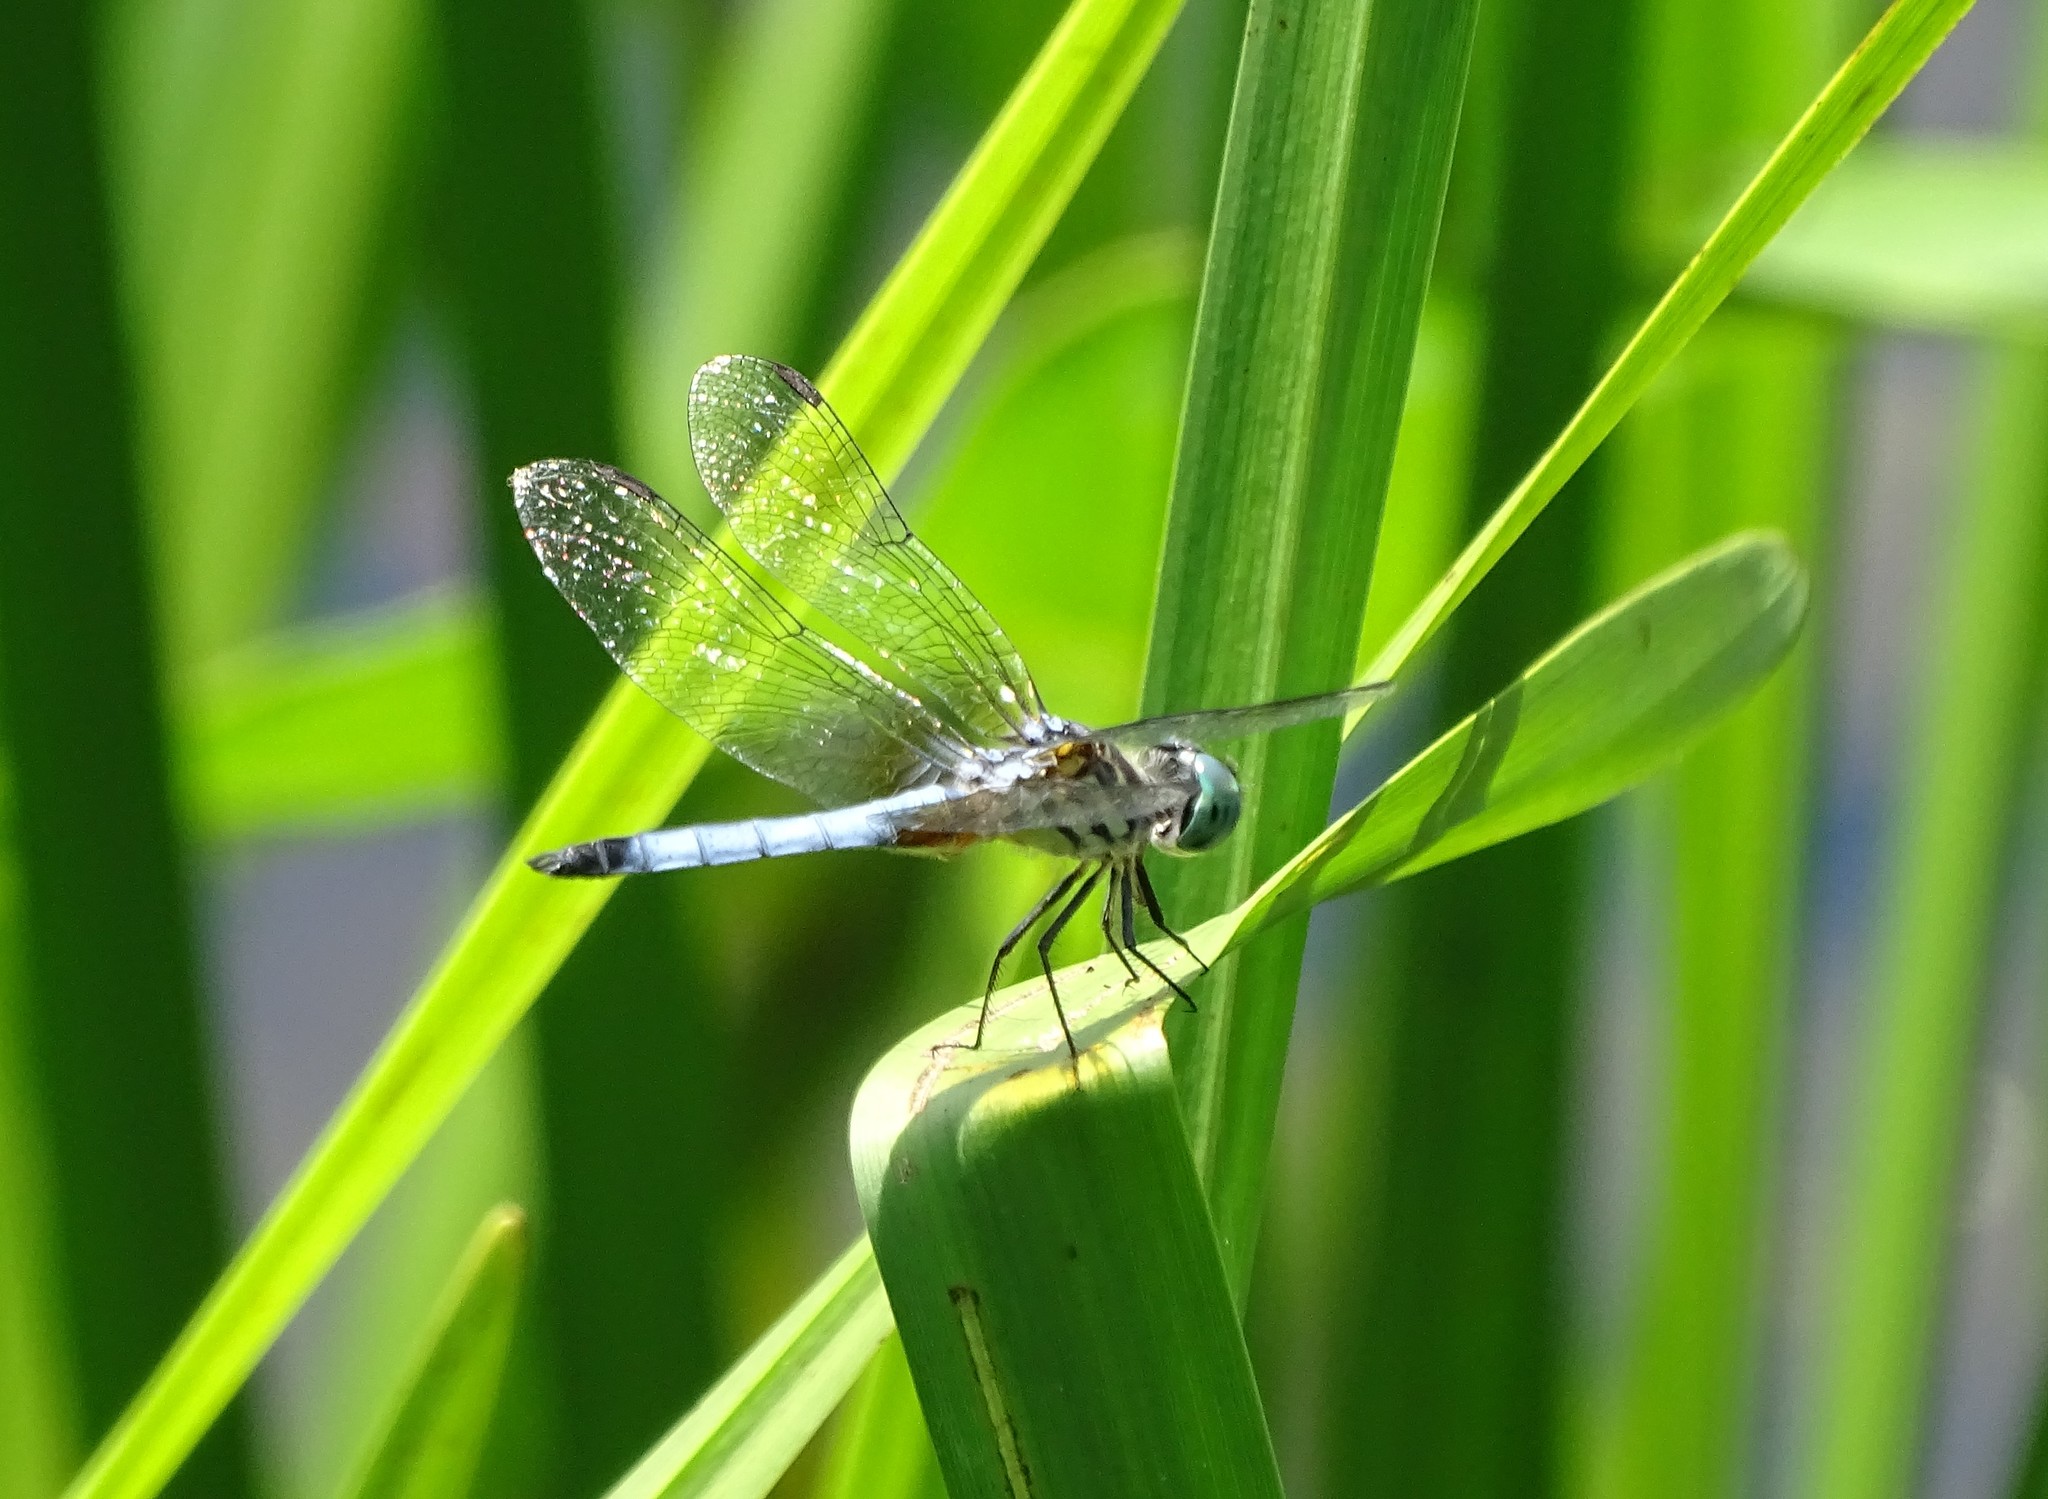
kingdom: Animalia
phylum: Arthropoda
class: Insecta
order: Odonata
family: Libellulidae
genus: Pachydiplax
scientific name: Pachydiplax longipennis
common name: Blue dasher
